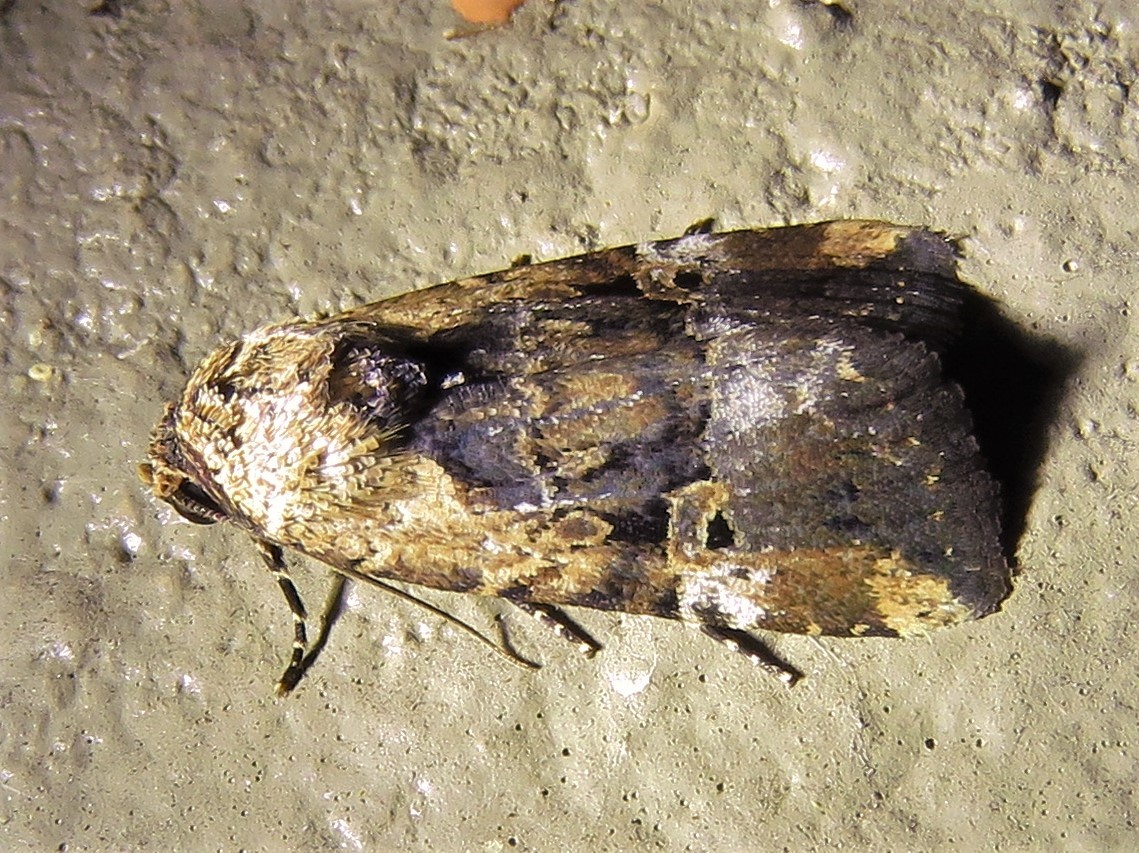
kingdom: Animalia
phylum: Arthropoda
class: Insecta
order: Lepidoptera
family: Noctuidae
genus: Elaphria
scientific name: Elaphria chalcedonia
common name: Chalcedony midget
